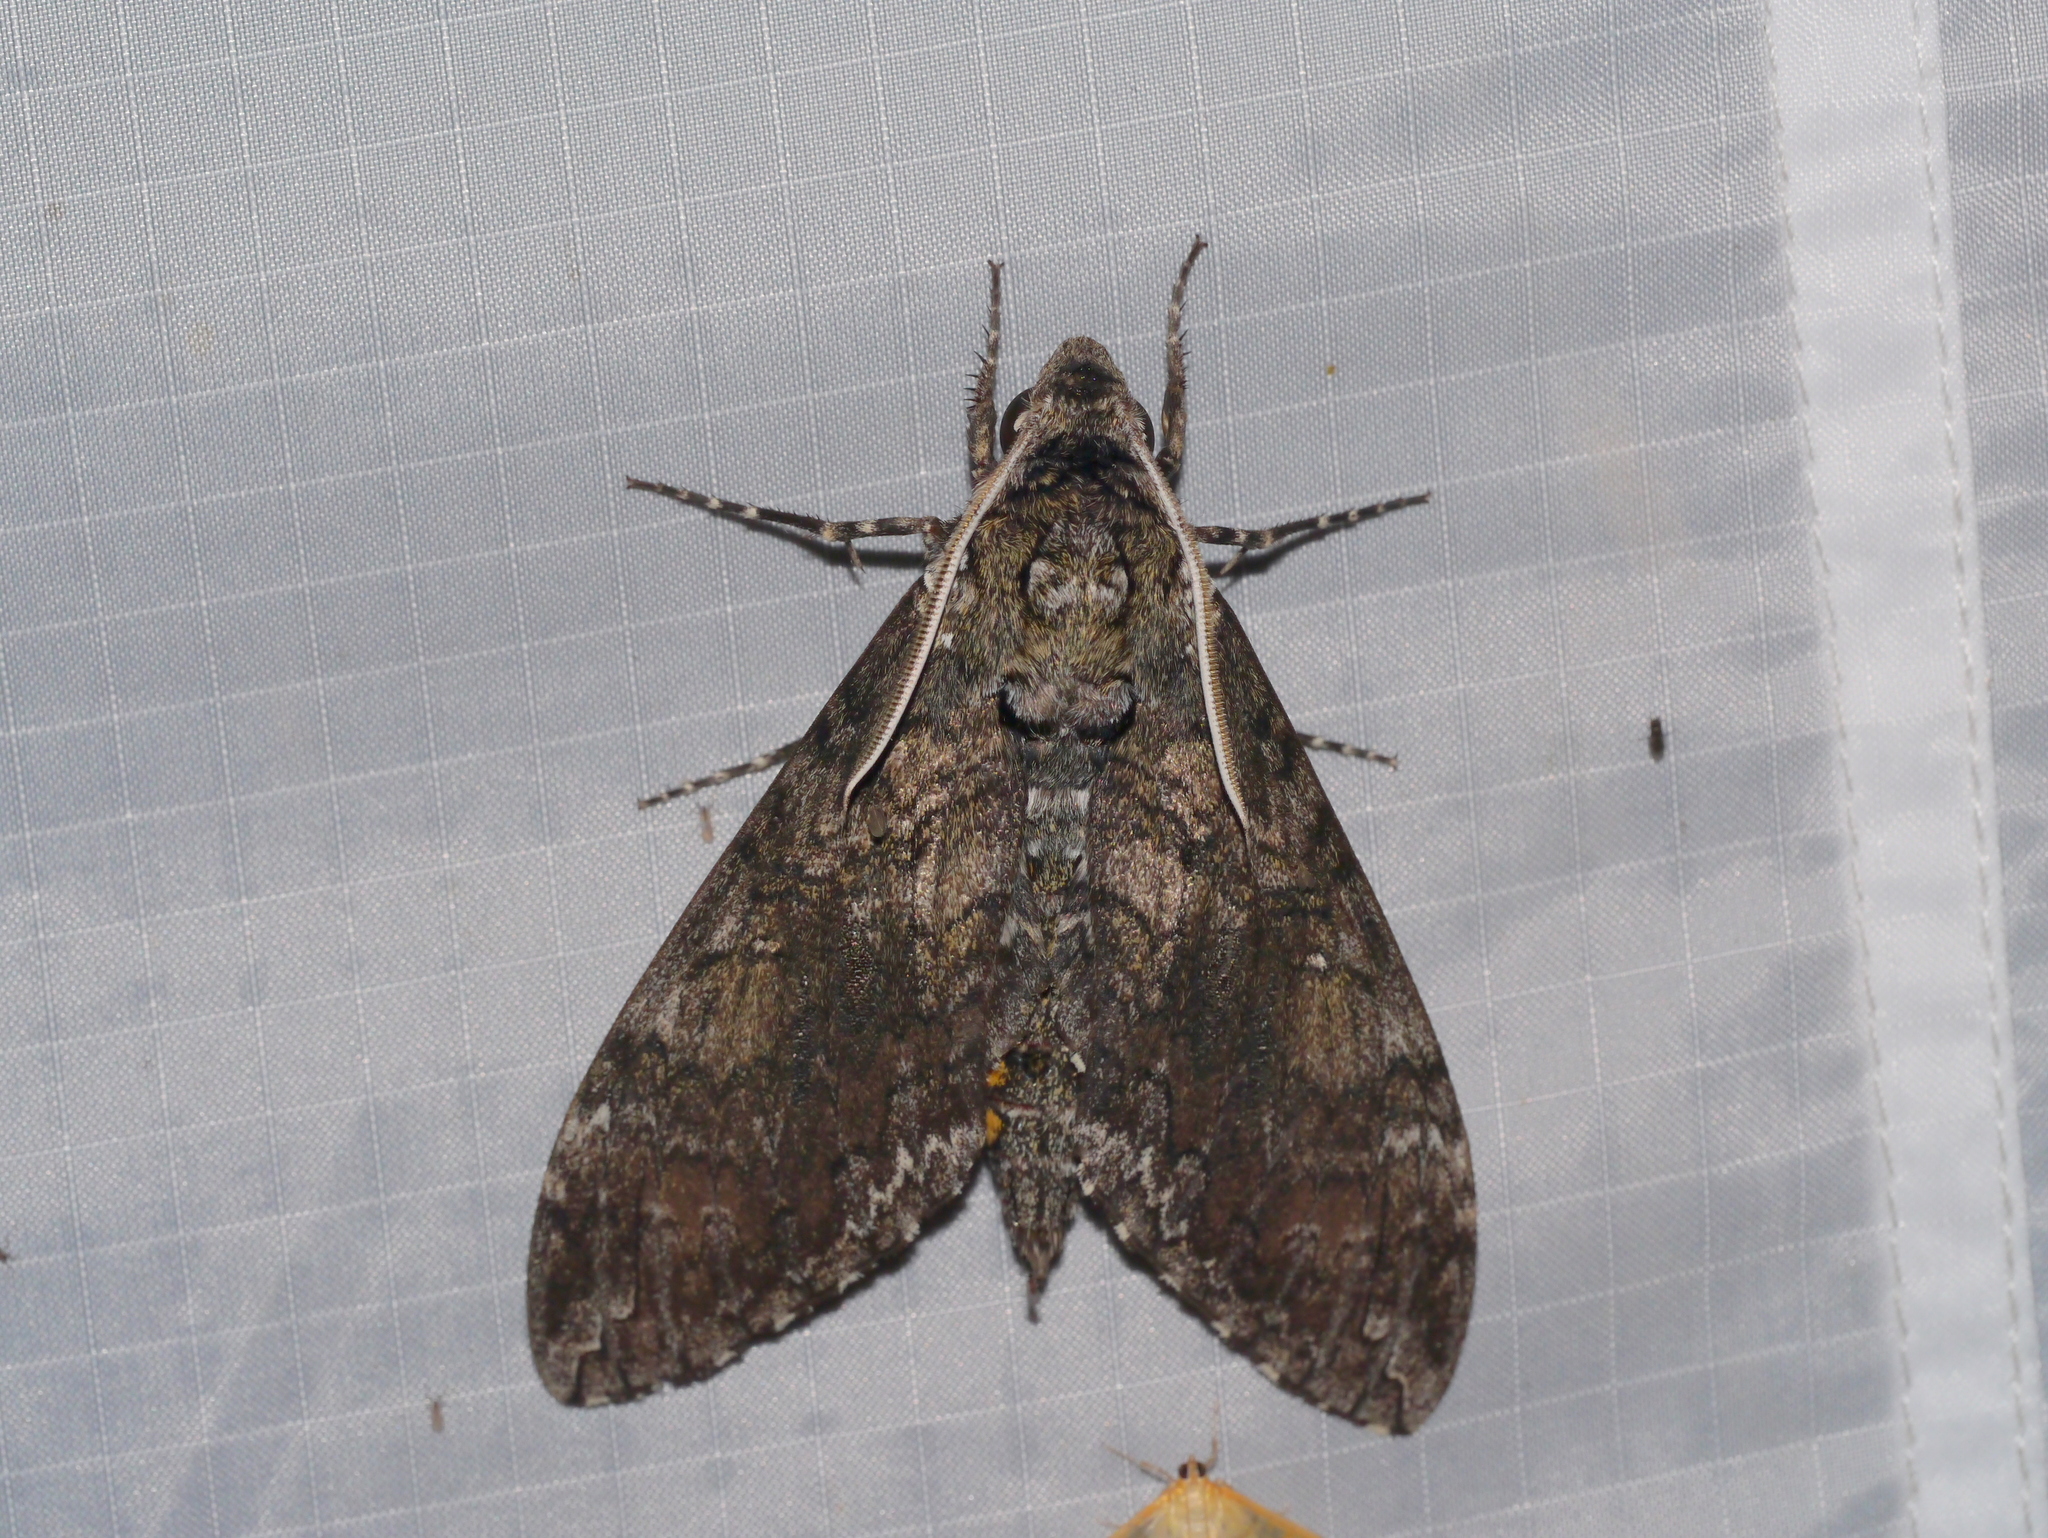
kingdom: Animalia
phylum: Arthropoda
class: Insecta
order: Lepidoptera
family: Sphingidae
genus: Manduca
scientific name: Manduca sexta
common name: Carolina sphinx
